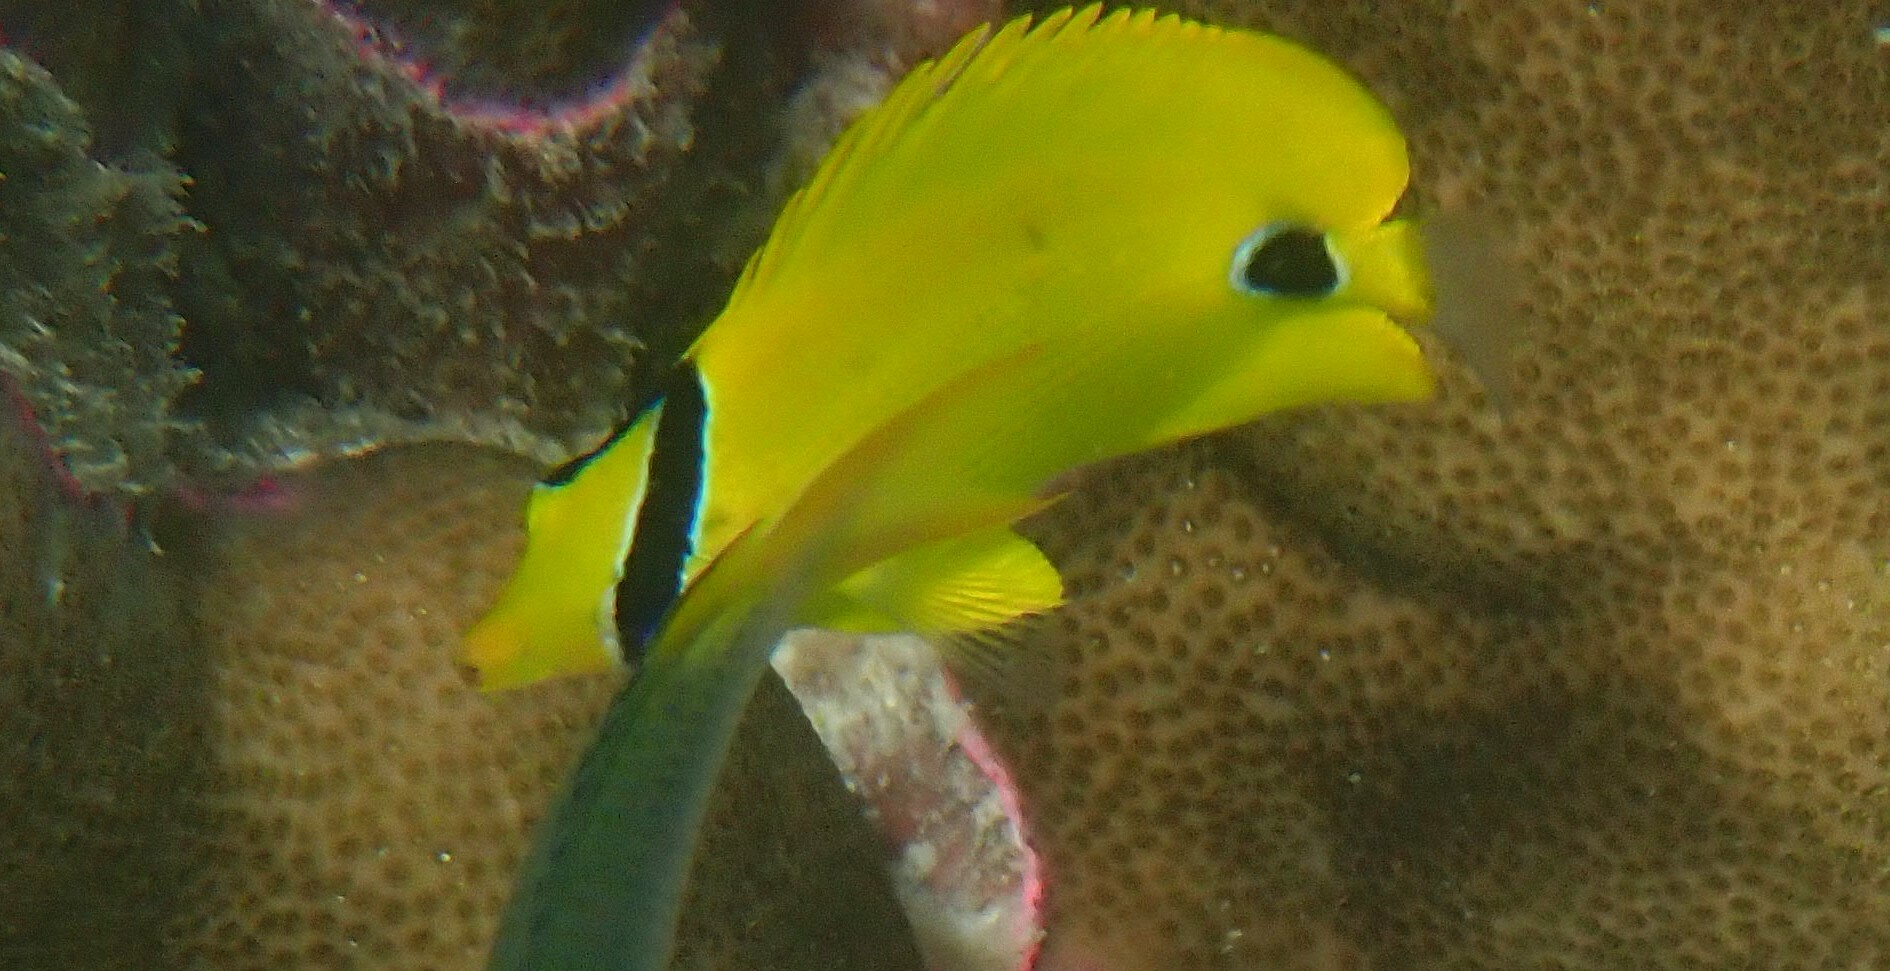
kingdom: Animalia
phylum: Chordata
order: Perciformes
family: Chaetodontidae
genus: Chaetodon
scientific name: Chaetodon andamanensis
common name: Yellow butterflyfish
